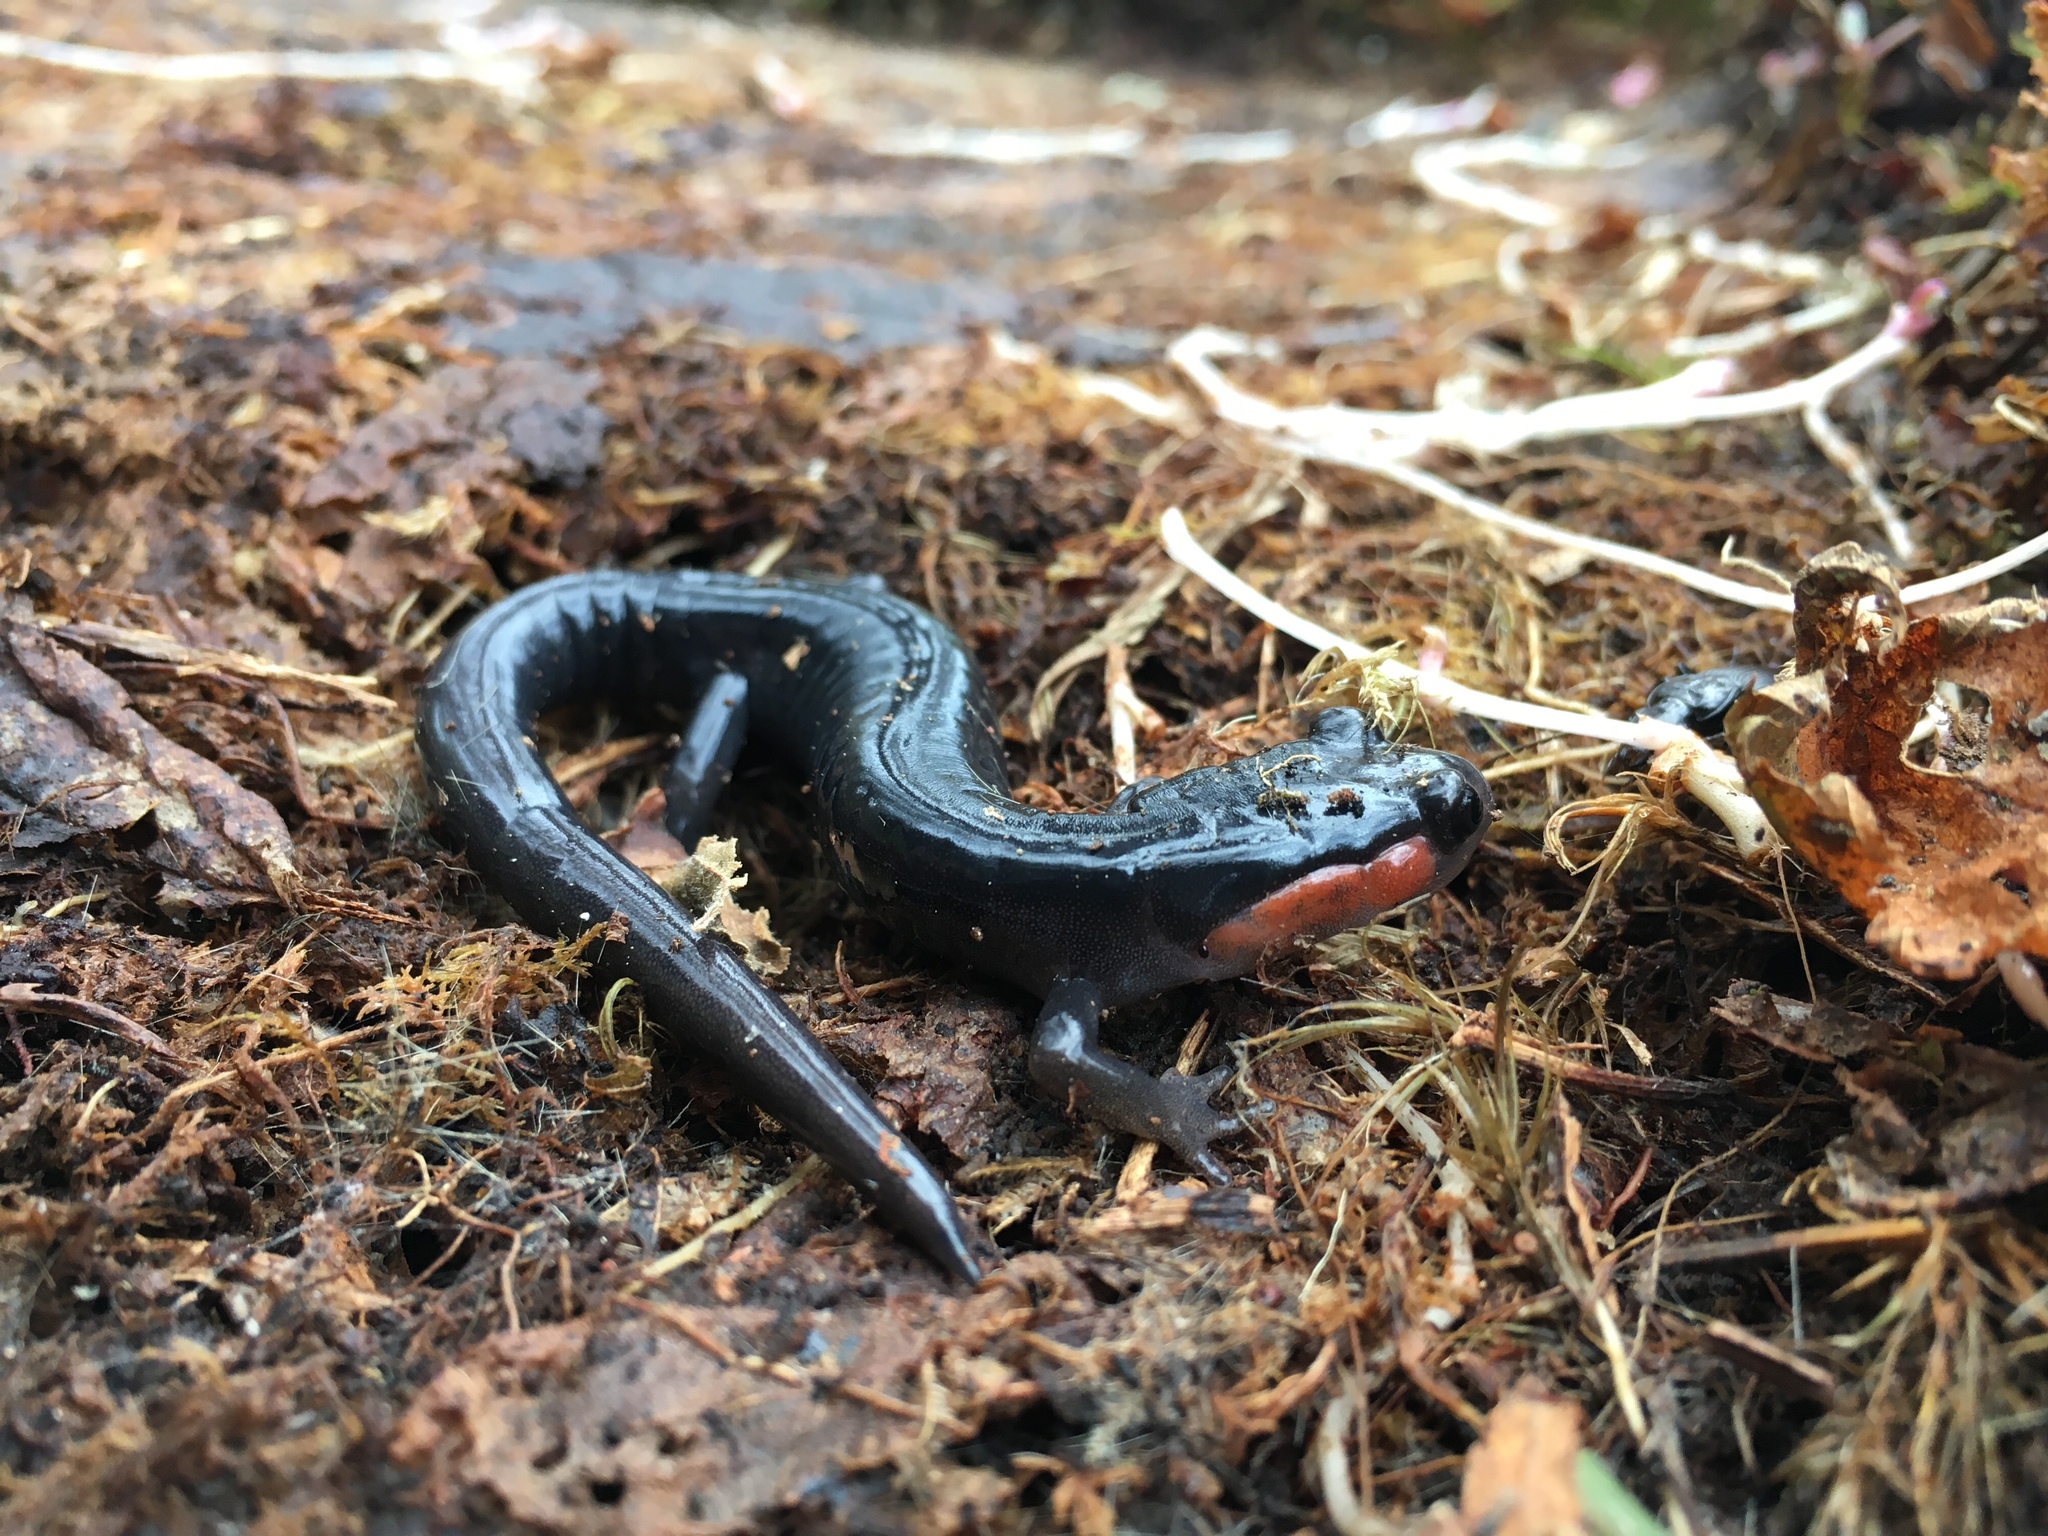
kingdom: Animalia
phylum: Chordata
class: Amphibia
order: Caudata
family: Plethodontidae
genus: Plethodon
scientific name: Plethodon jordani
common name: Red-cheeked salamander
